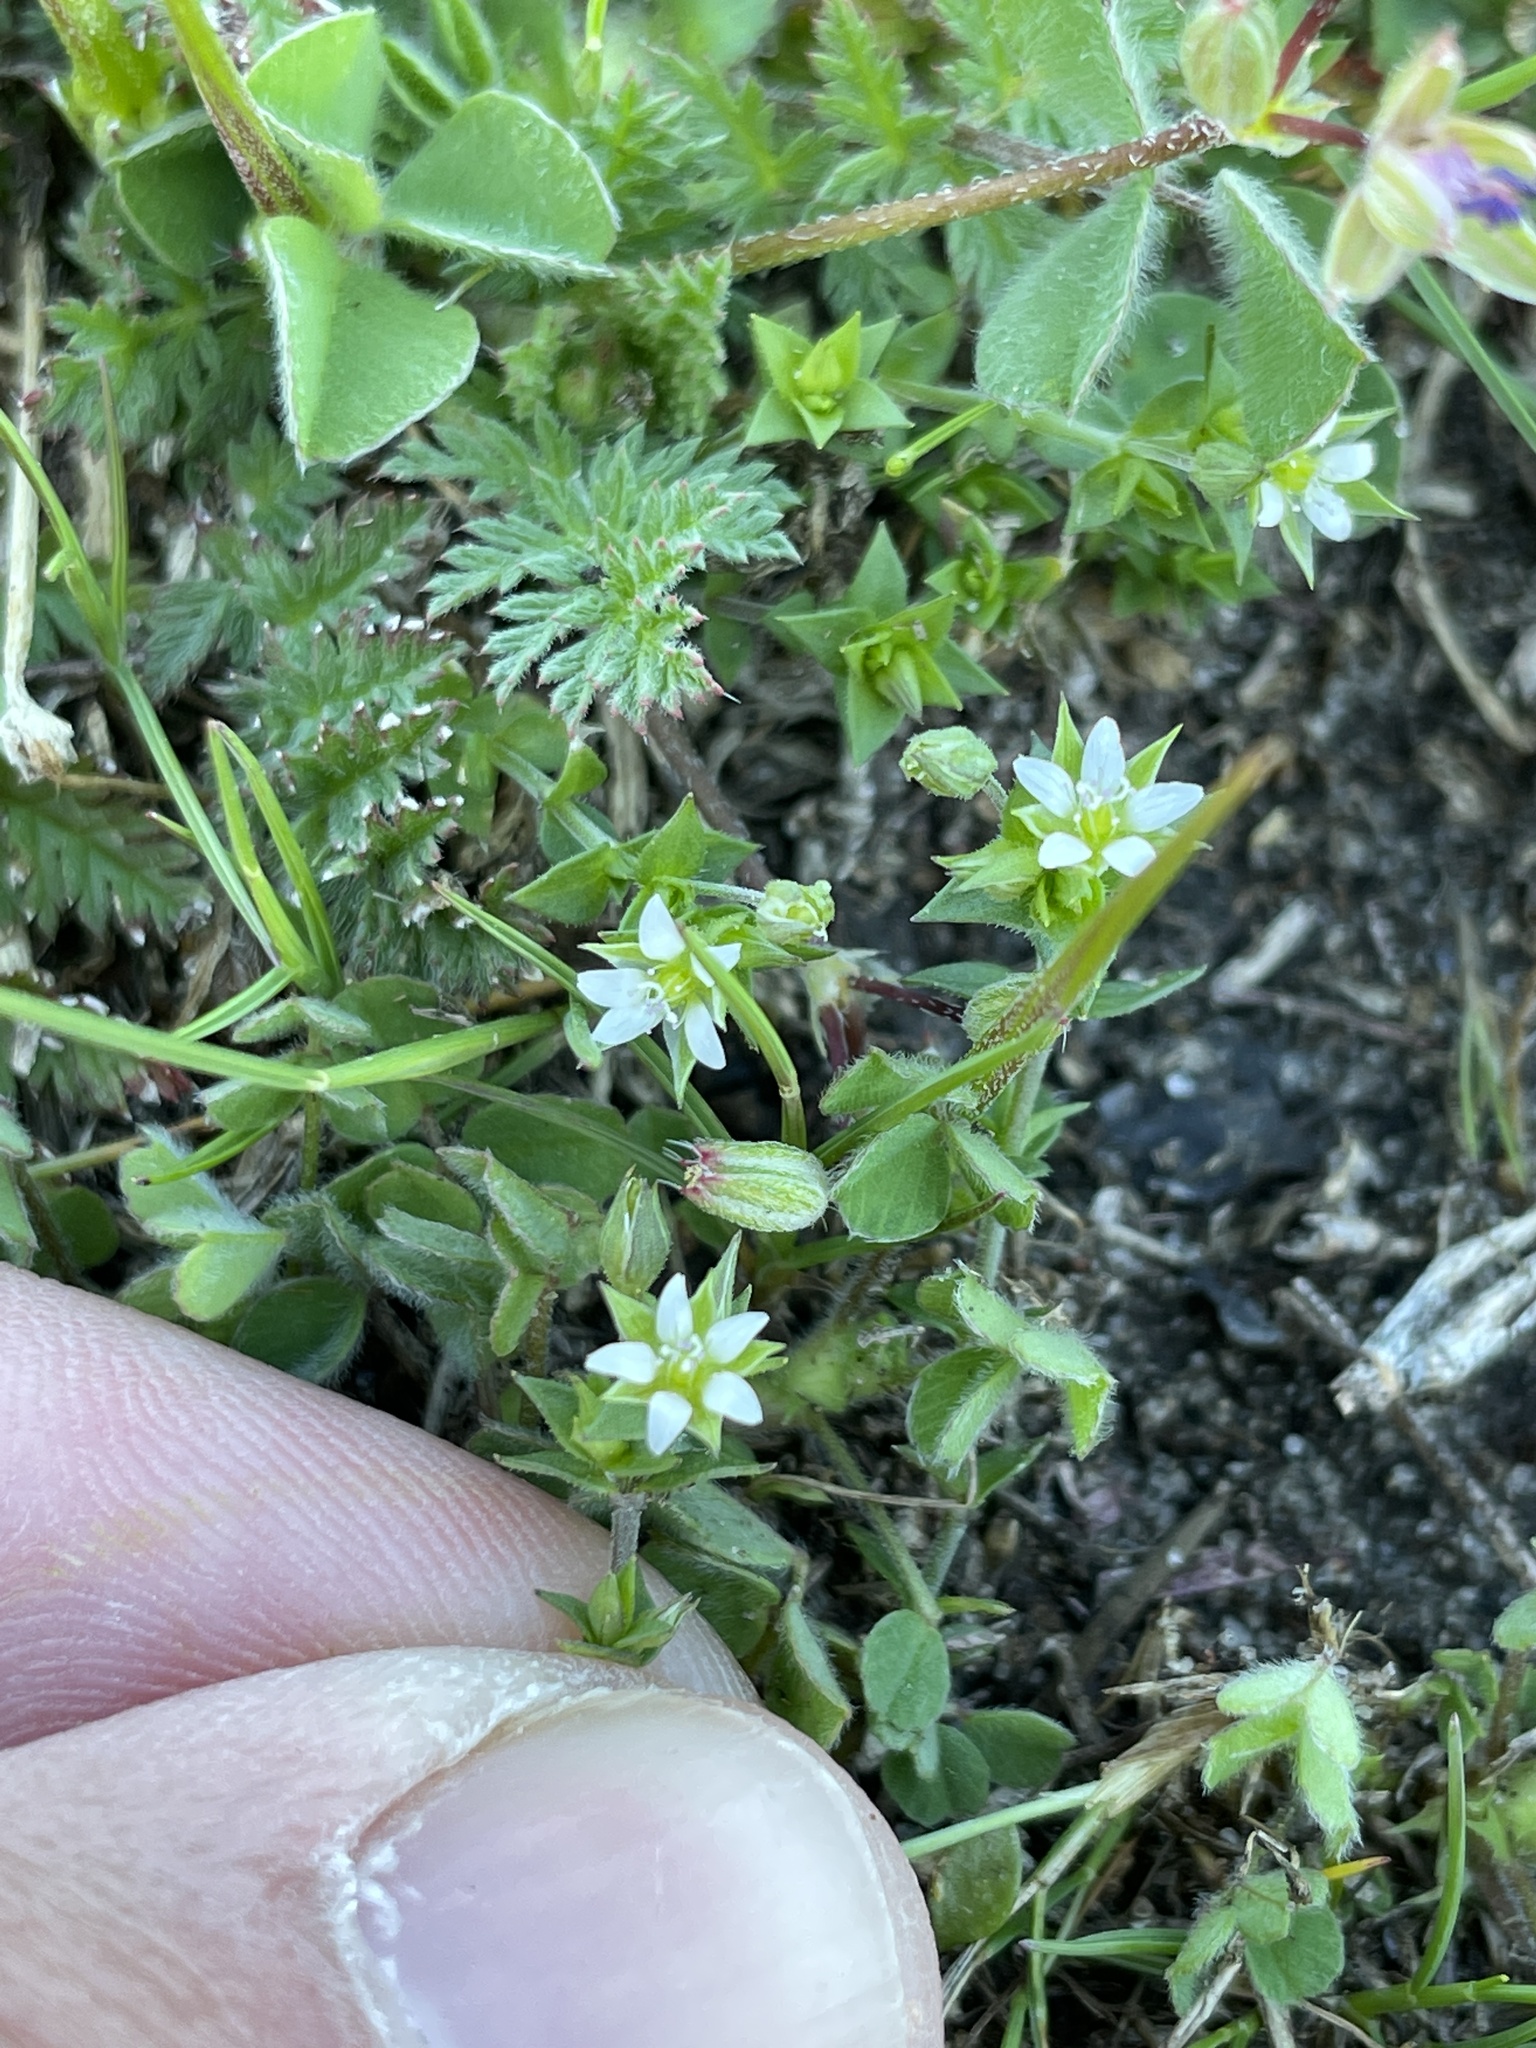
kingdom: Plantae
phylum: Tracheophyta
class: Magnoliopsida
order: Caryophyllales
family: Caryophyllaceae
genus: Arenaria
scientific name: Arenaria serpyllifolia
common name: Thyme-leaved sandwort
